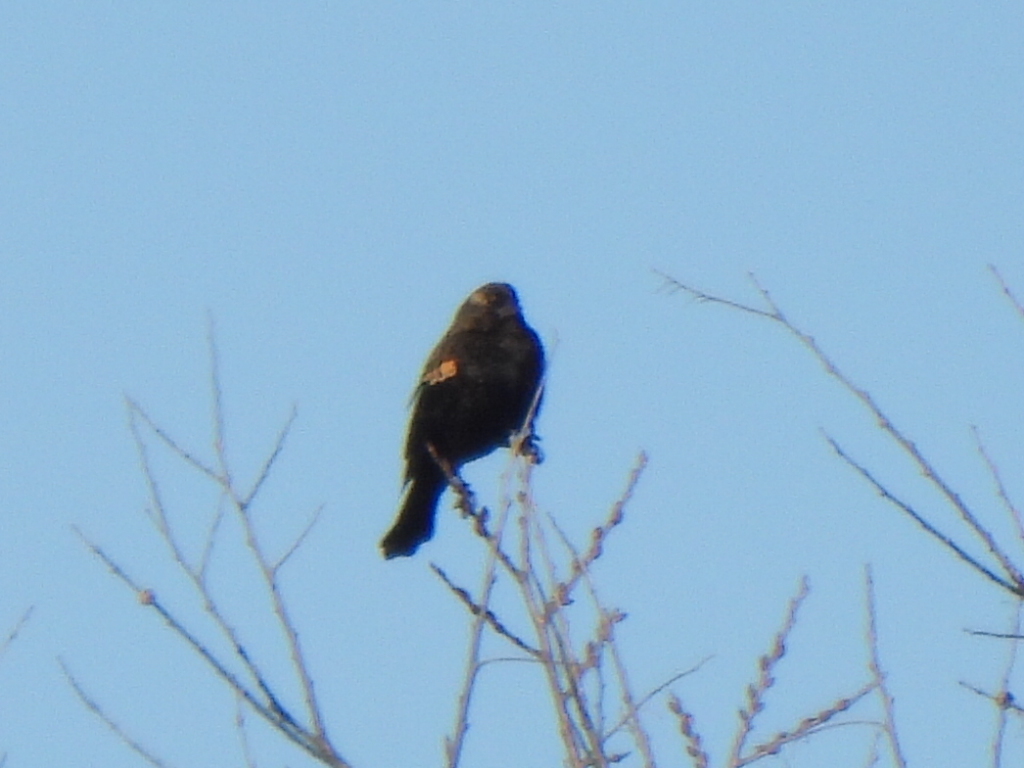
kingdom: Animalia
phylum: Chordata
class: Aves
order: Passeriformes
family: Icteridae
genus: Agelaius
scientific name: Agelaius phoeniceus
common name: Red-winged blackbird
